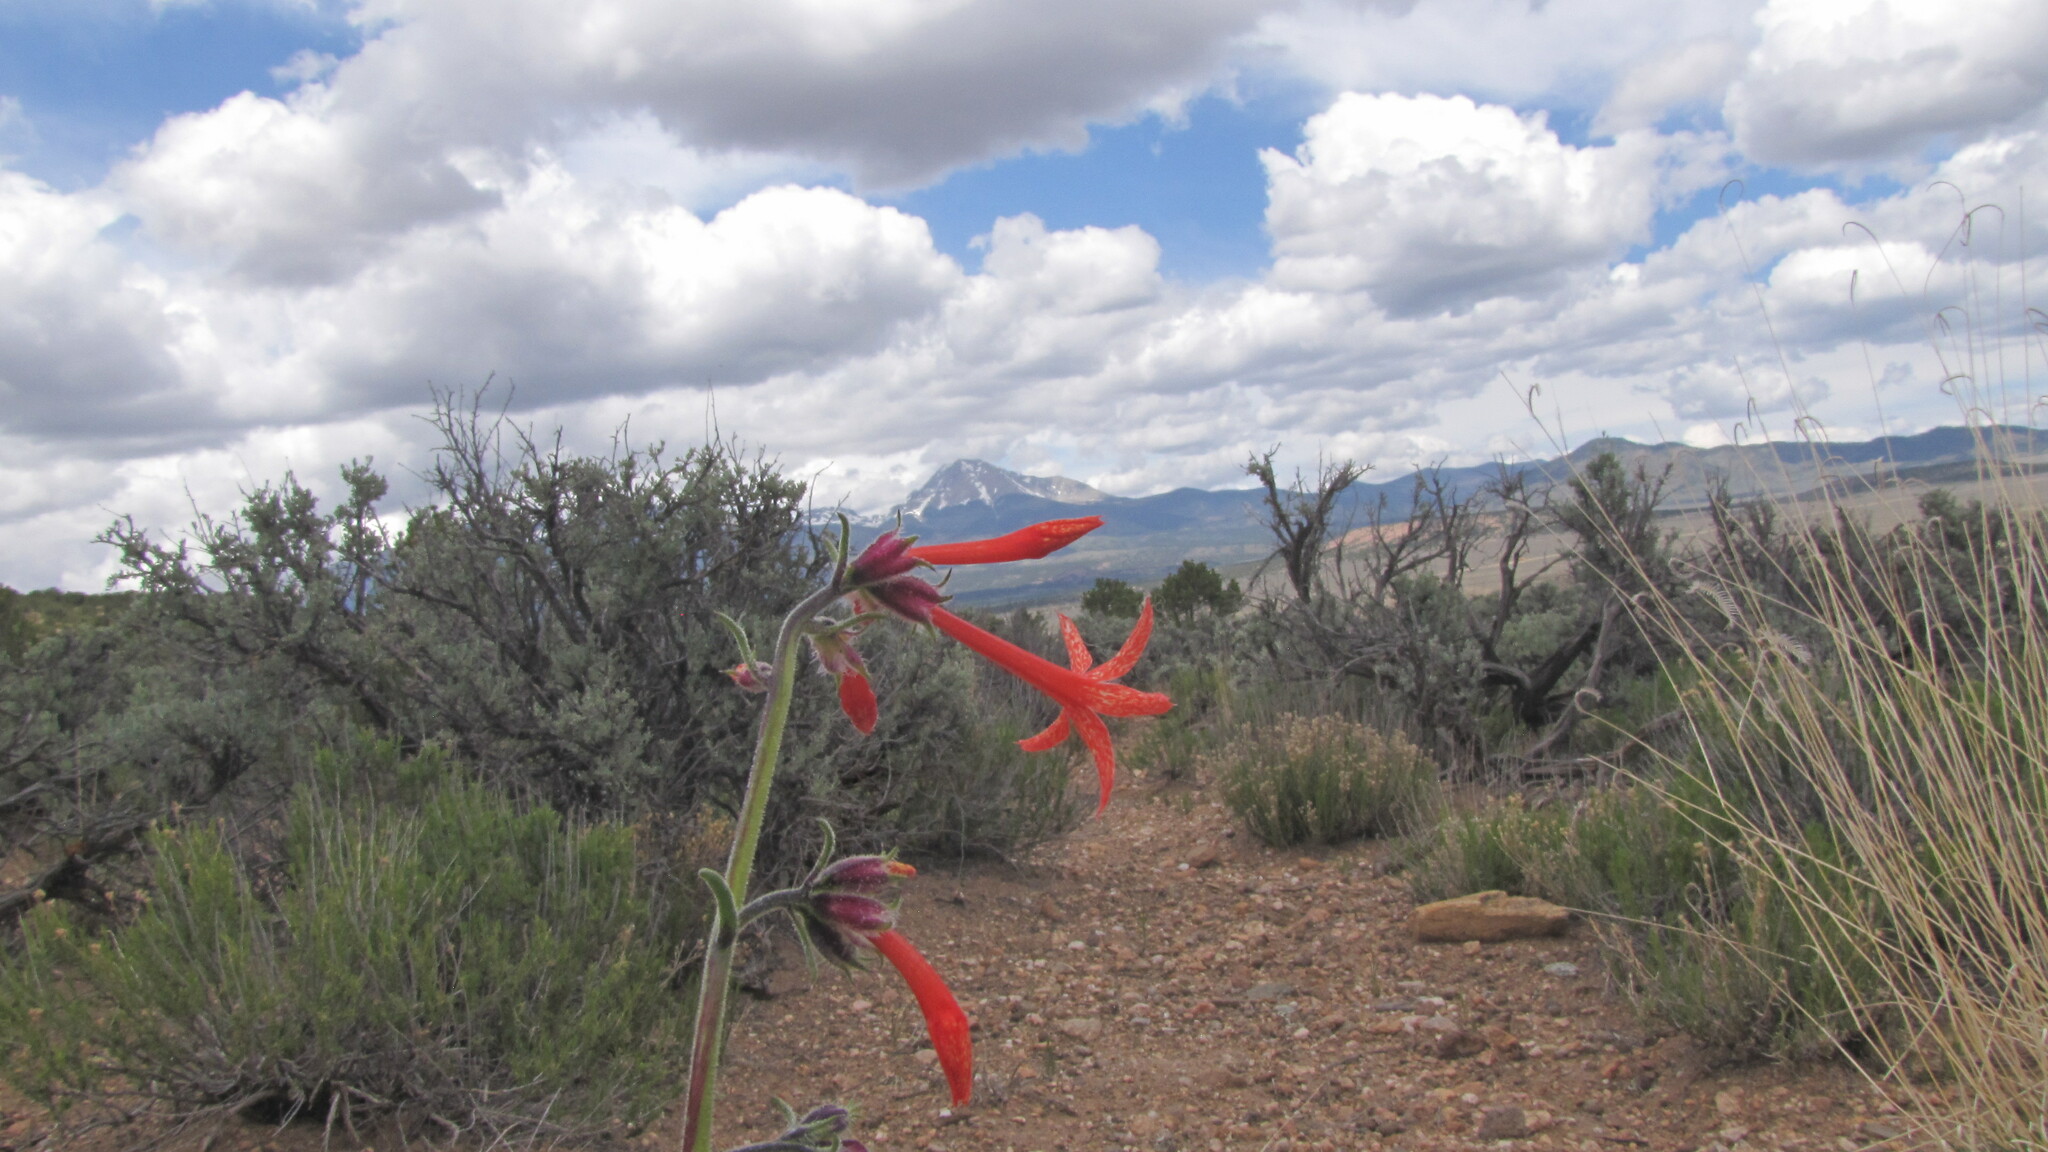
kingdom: Plantae
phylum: Tracheophyta
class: Magnoliopsida
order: Ericales
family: Polemoniaceae
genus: Ipomopsis
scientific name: Ipomopsis aggregata
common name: Scarlet gilia
